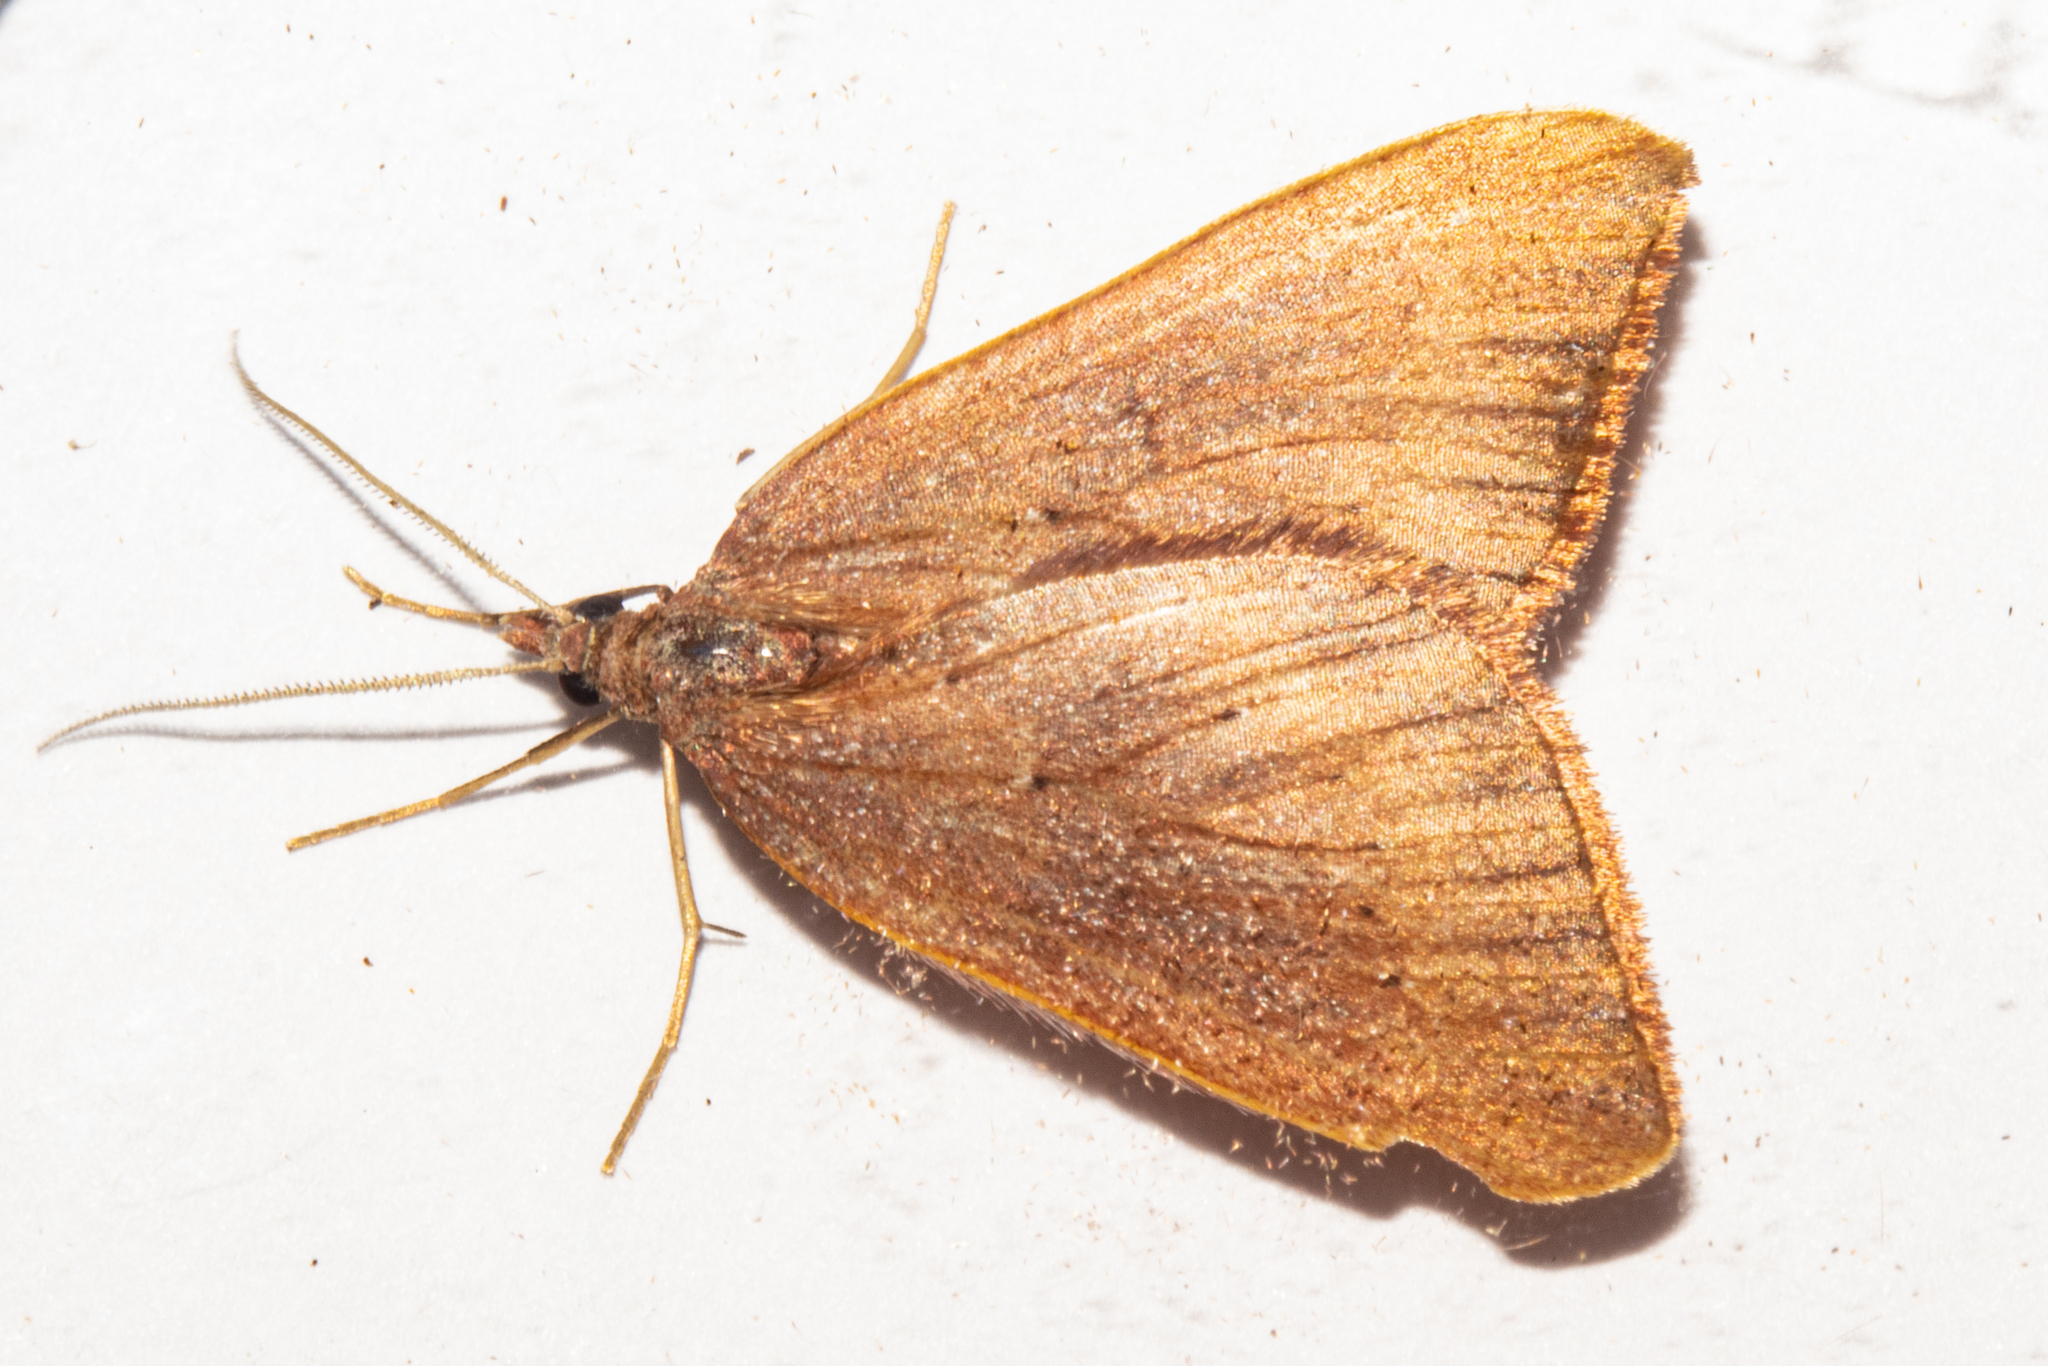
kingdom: Animalia
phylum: Arthropoda
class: Insecta
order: Lepidoptera
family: Geometridae
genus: Xanthorhoe
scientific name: Xanthorhoe occulta
